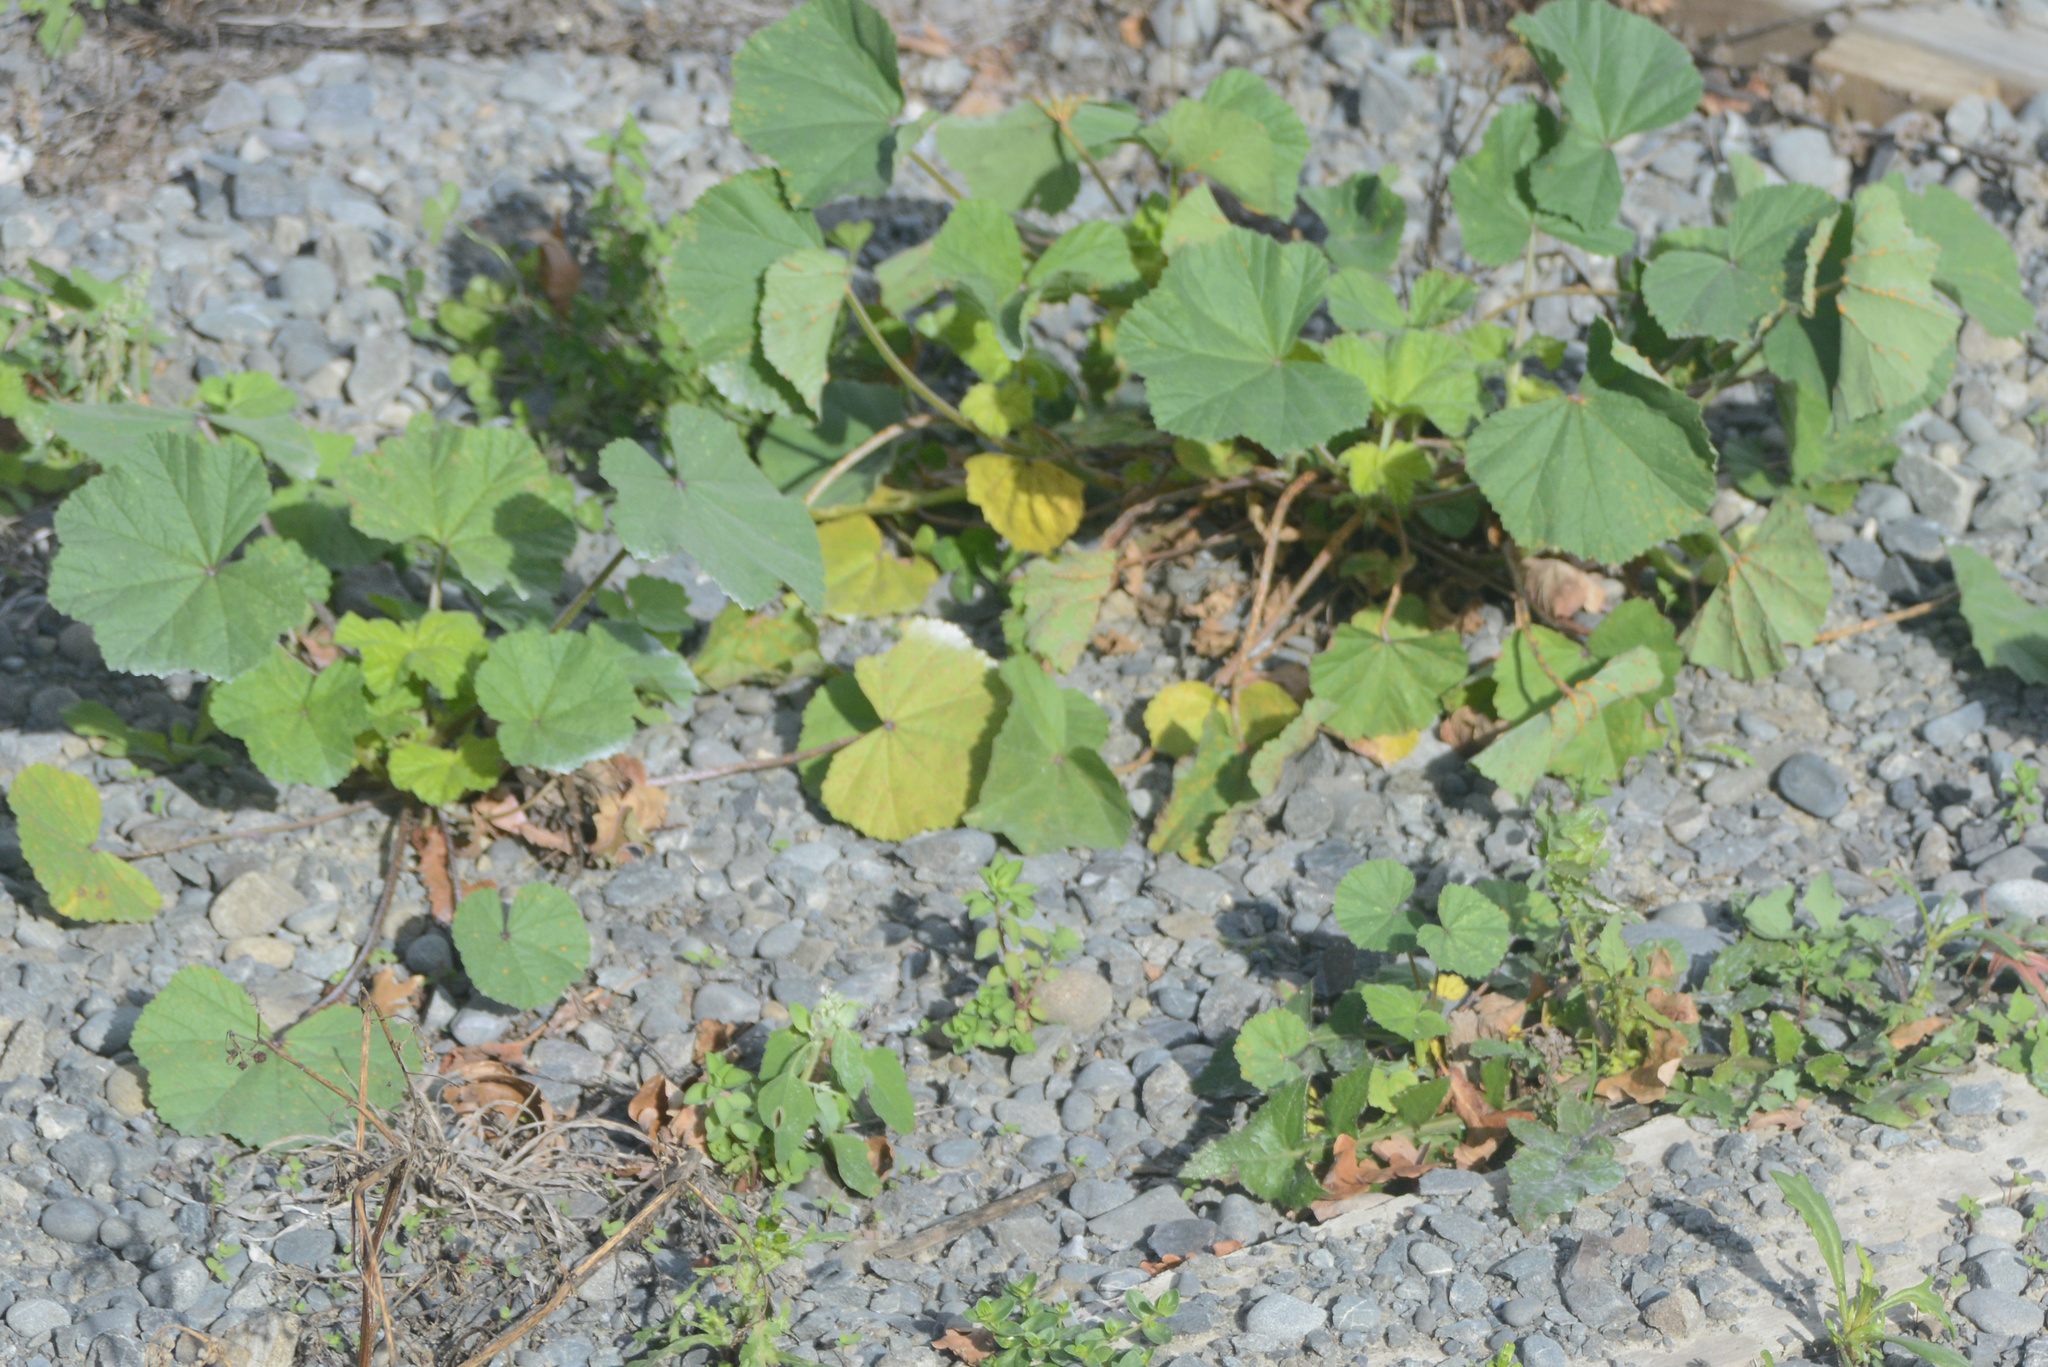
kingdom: Plantae
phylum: Tracheophyta
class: Magnoliopsida
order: Malvales
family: Malvaceae
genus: Malva
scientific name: Malva sylvestris
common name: Common mallow
